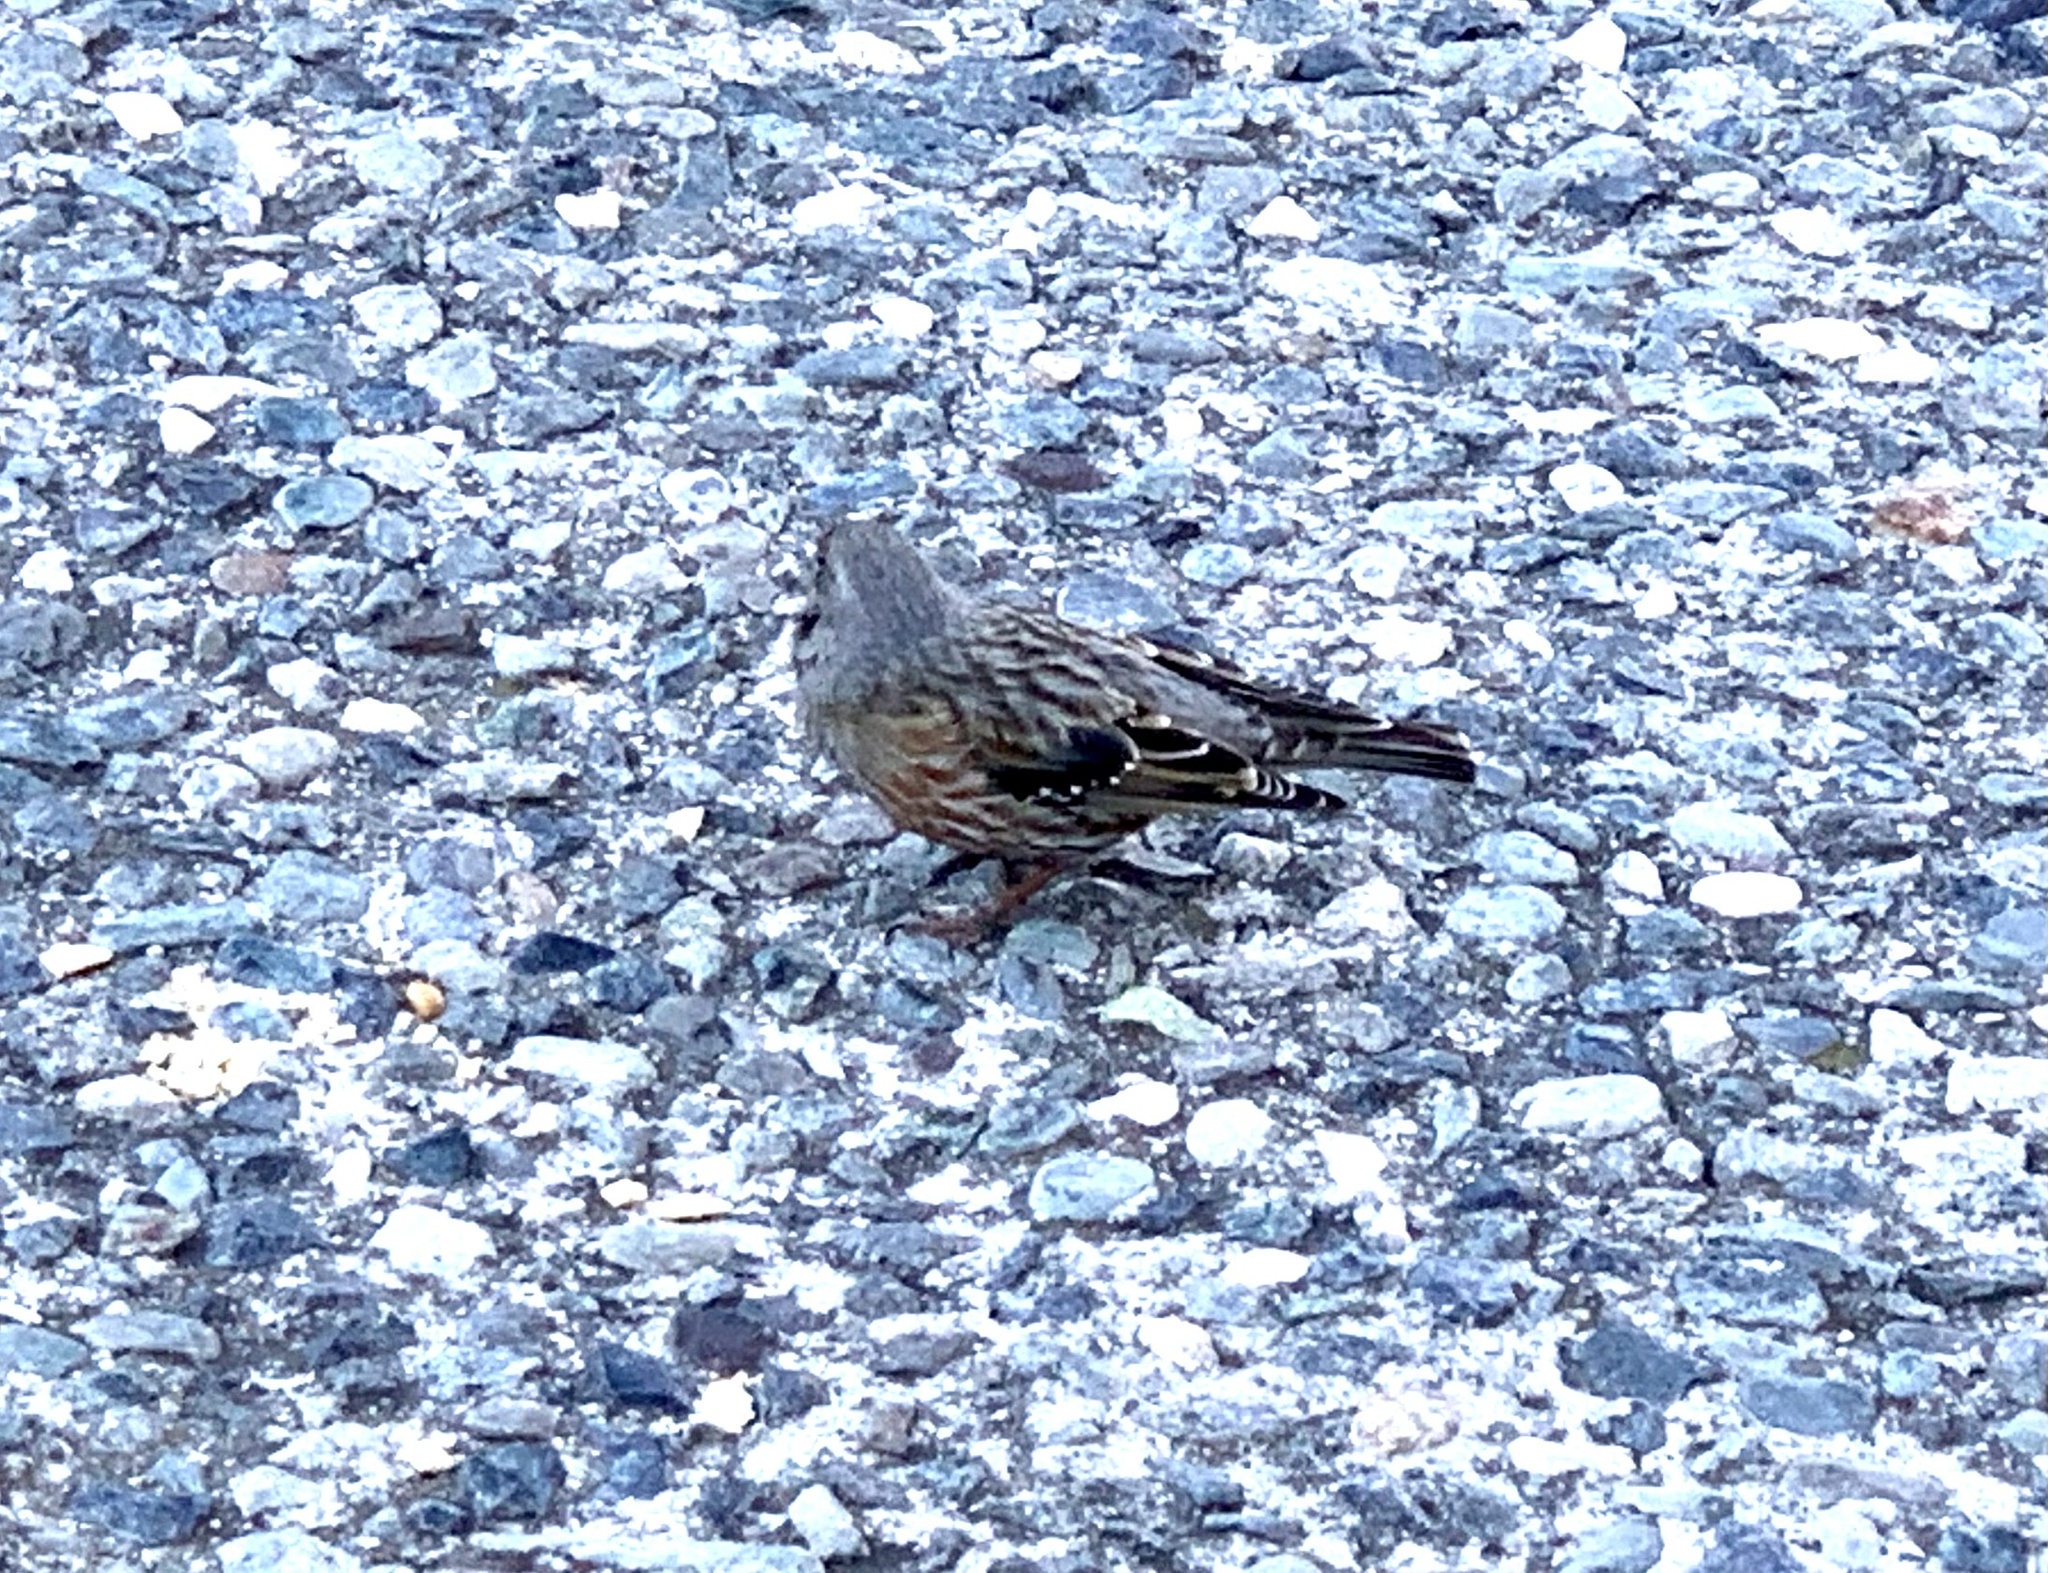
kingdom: Animalia
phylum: Chordata
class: Aves
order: Passeriformes
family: Prunellidae
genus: Prunella
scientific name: Prunella collaris
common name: Alpine accentor
